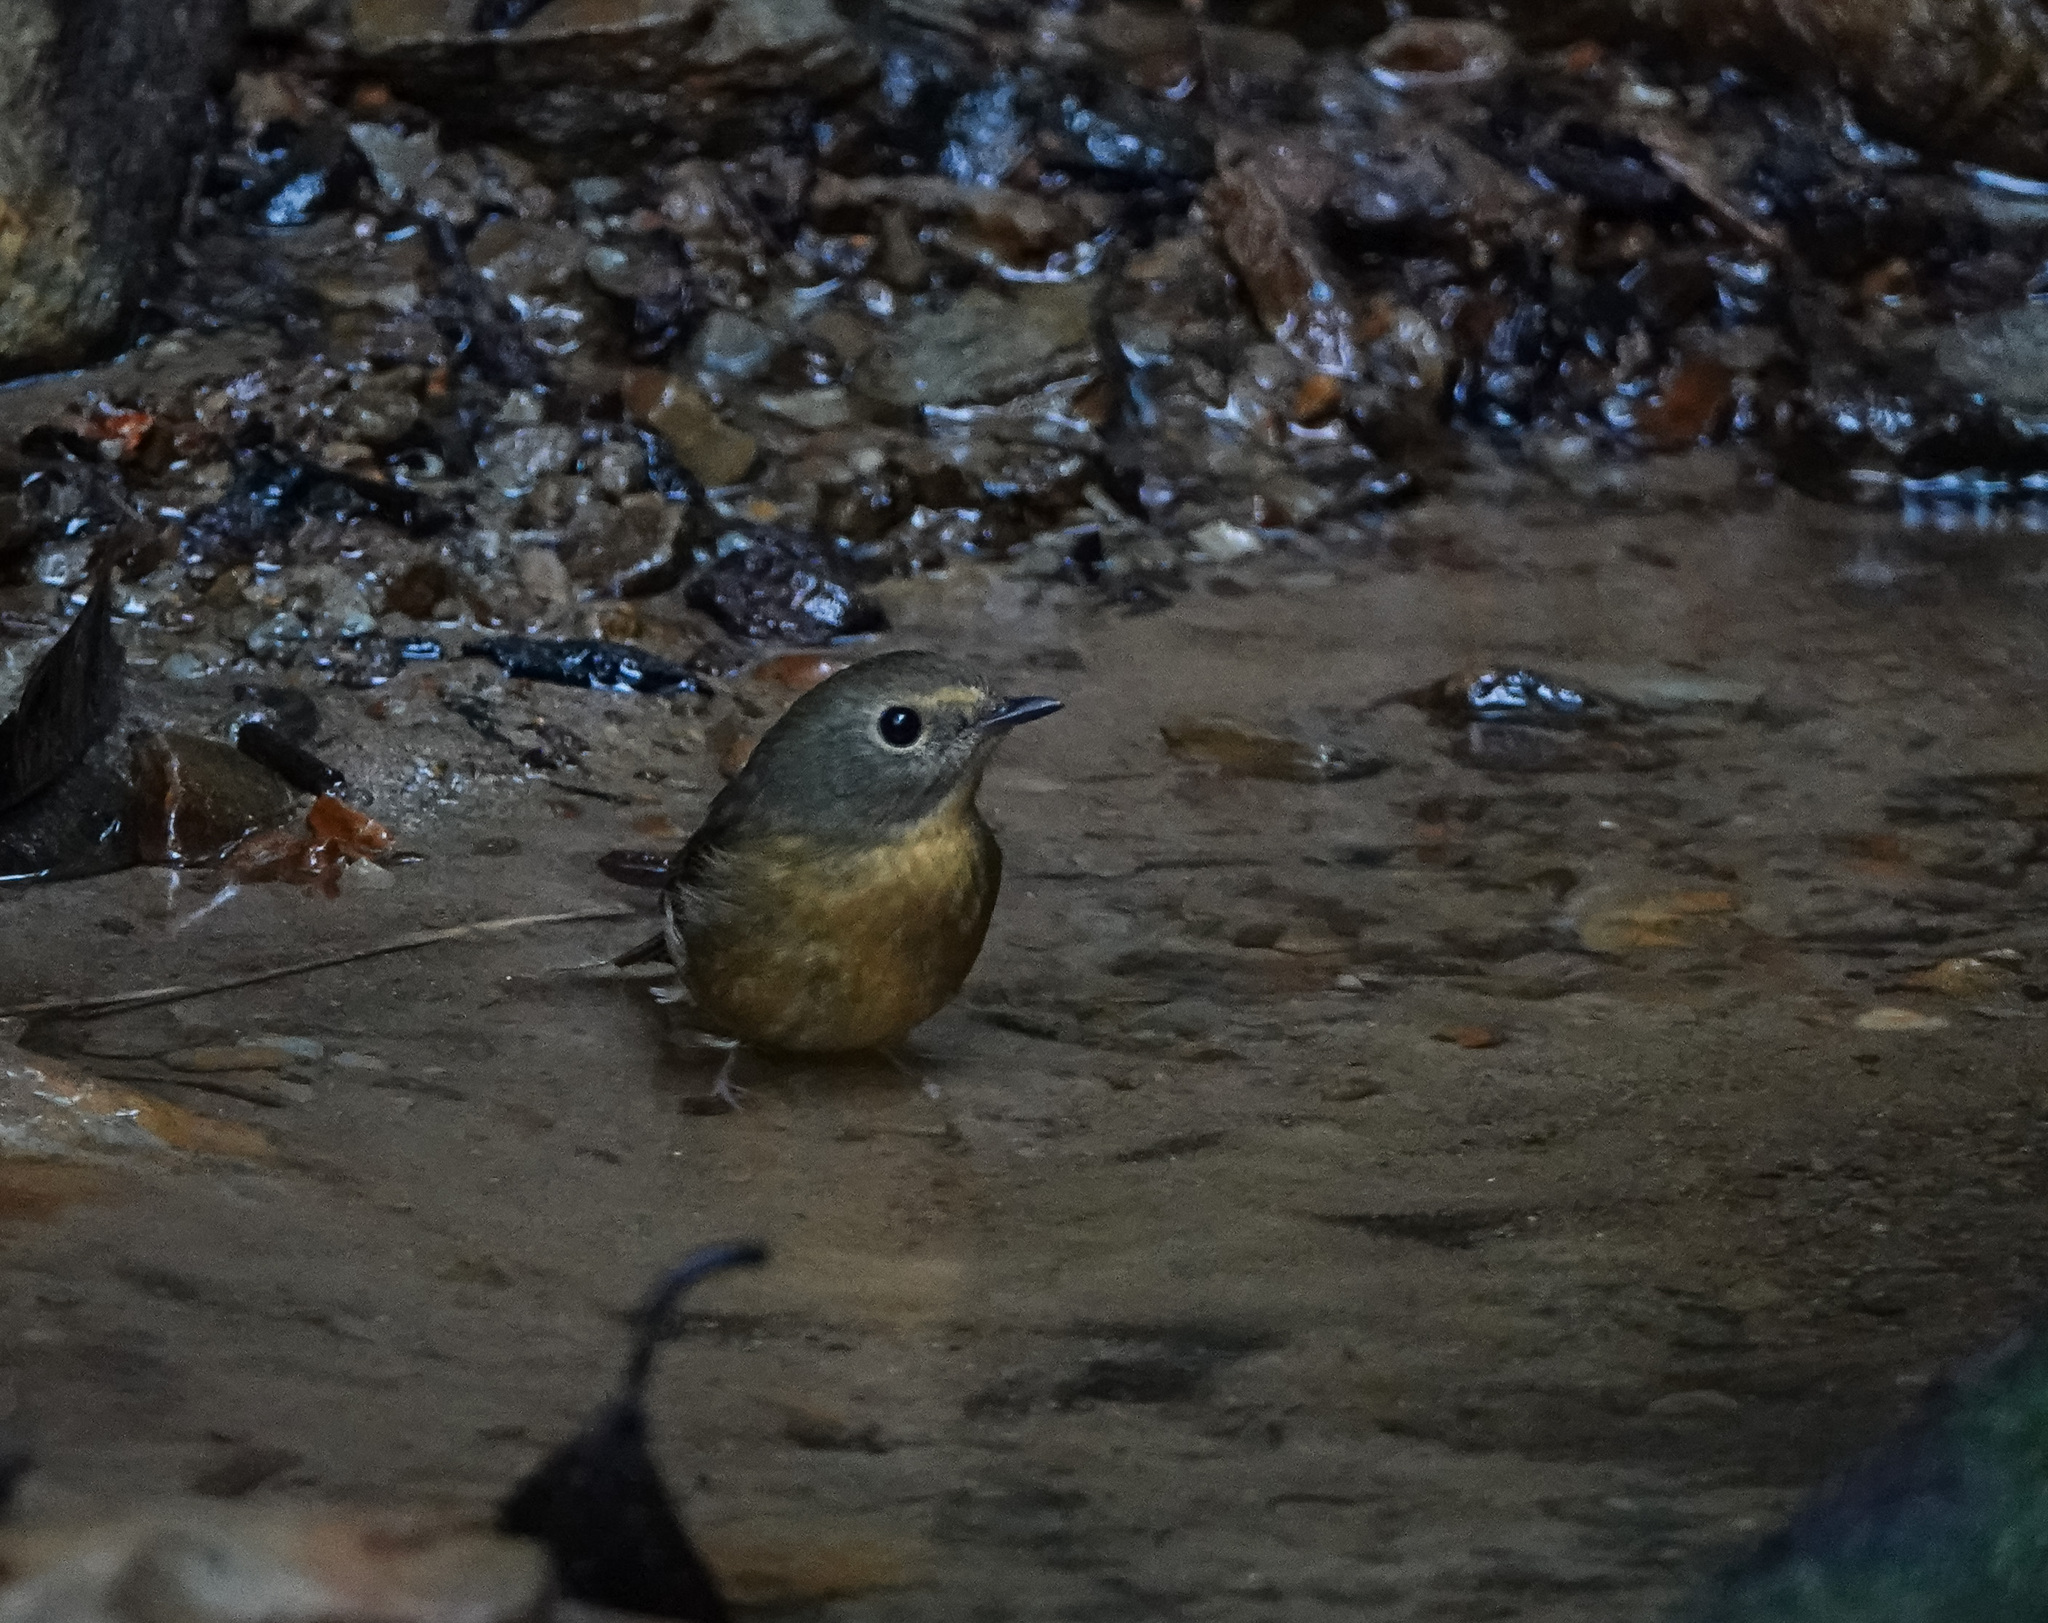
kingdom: Animalia
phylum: Chordata
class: Aves
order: Passeriformes
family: Muscicapidae
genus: Ficedula
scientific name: Ficedula hyperythra
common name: Snowy-browed flycatcher
